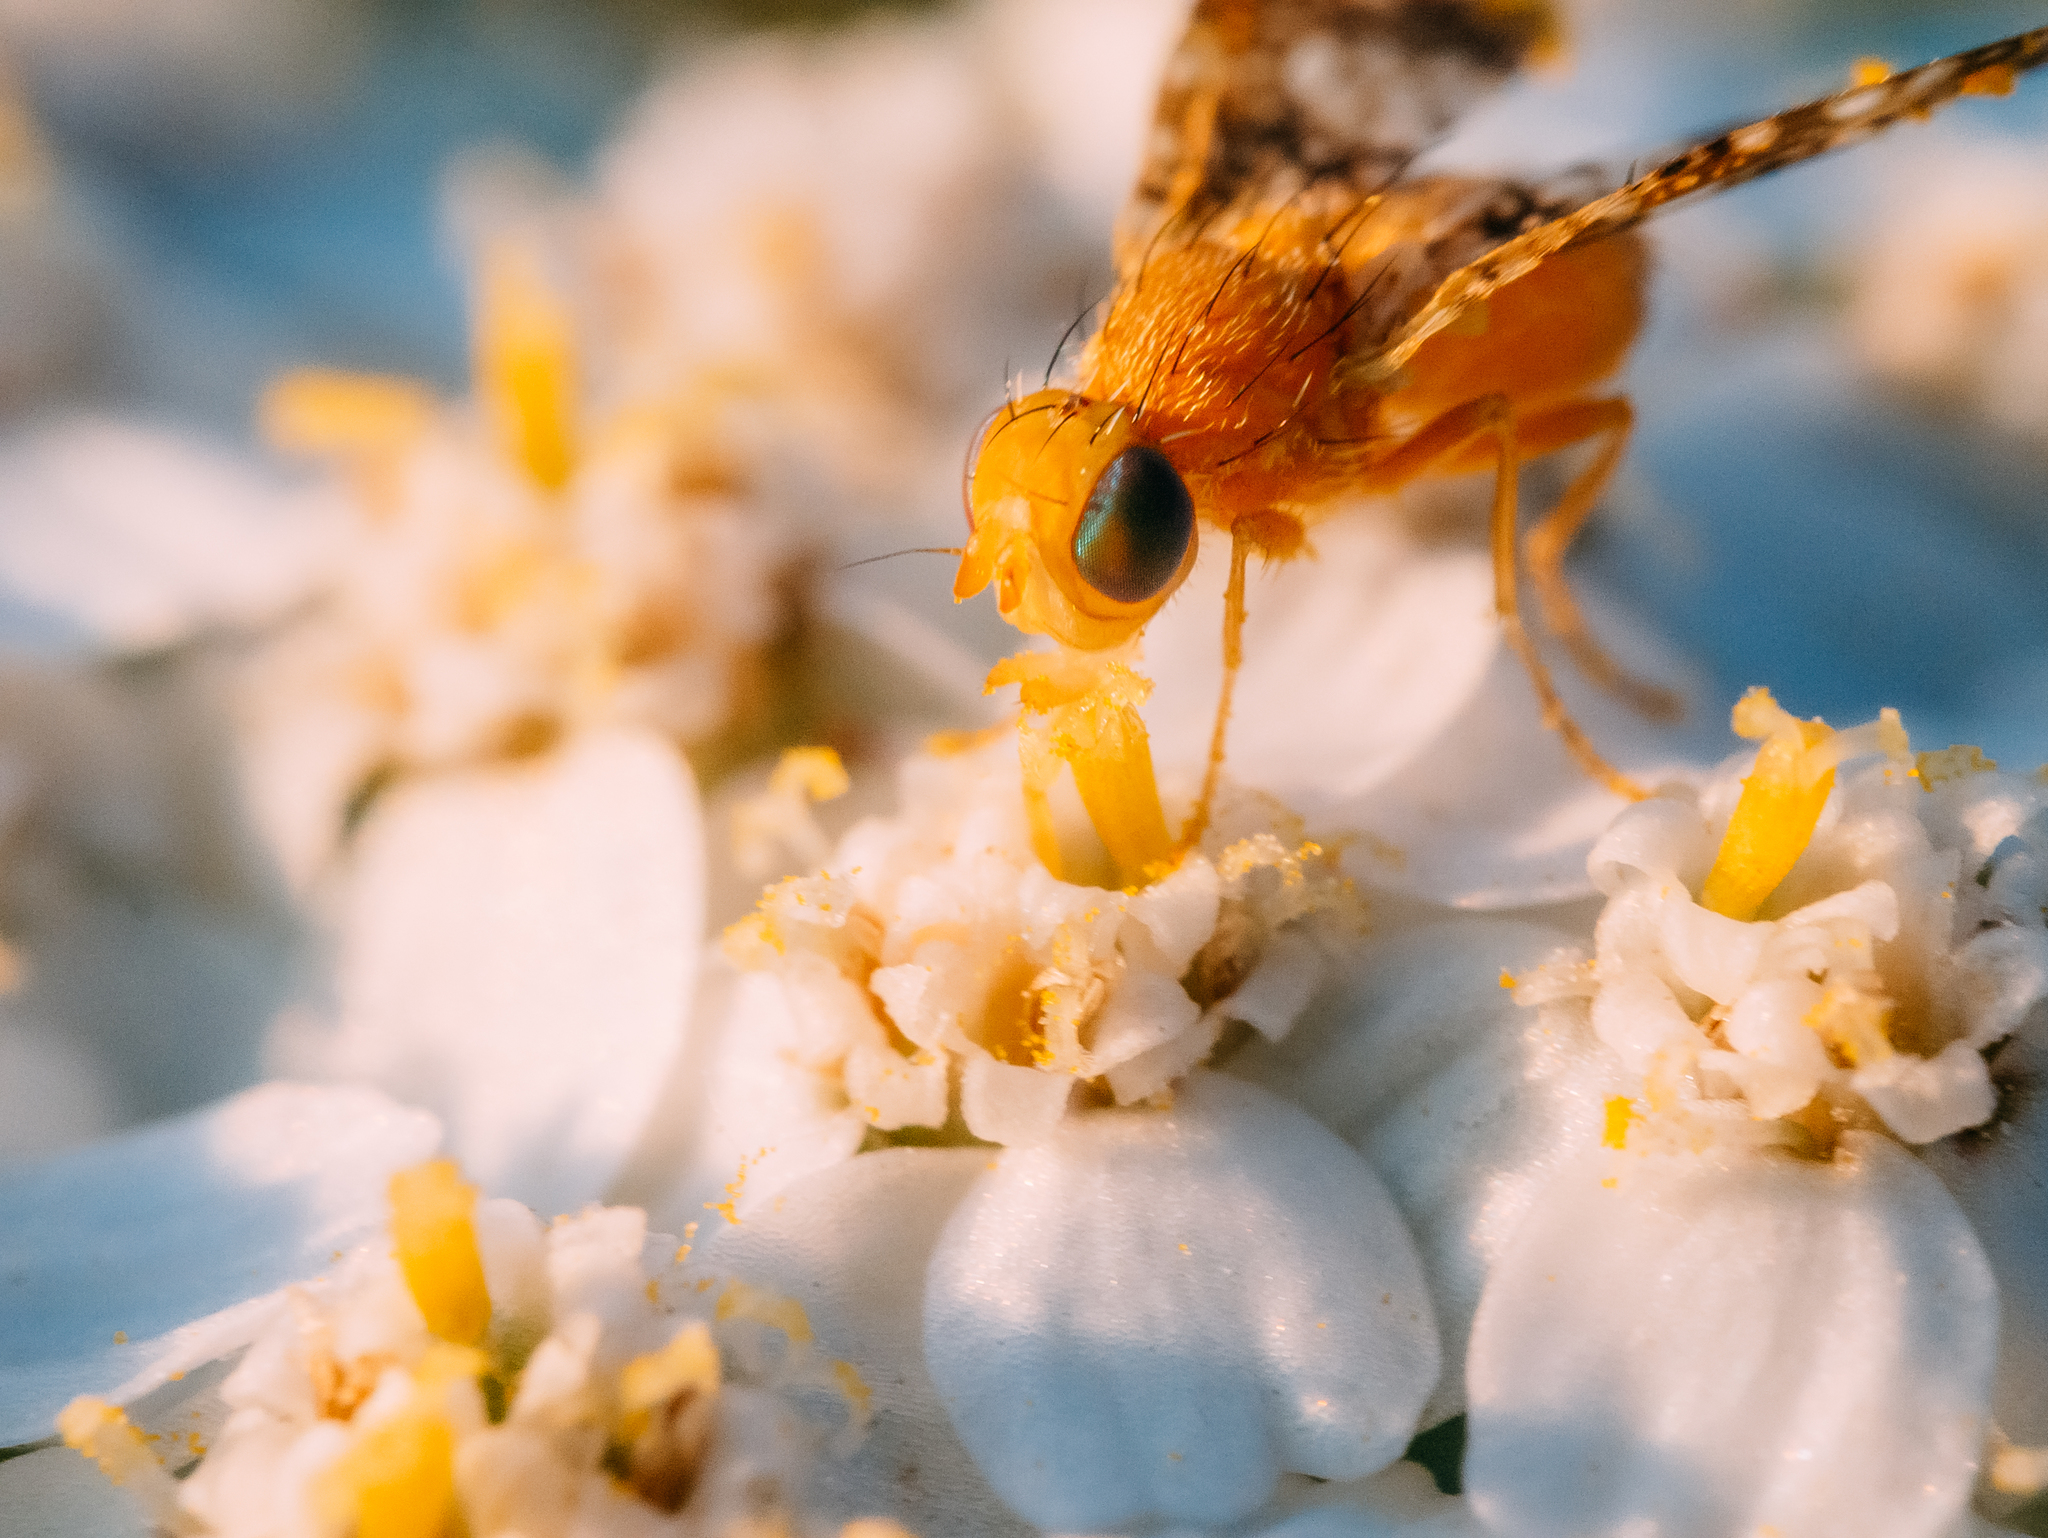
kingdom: Animalia
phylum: Arthropoda
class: Insecta
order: Diptera
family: Tephritidae
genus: Oxyna
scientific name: Oxyna flavipennis
